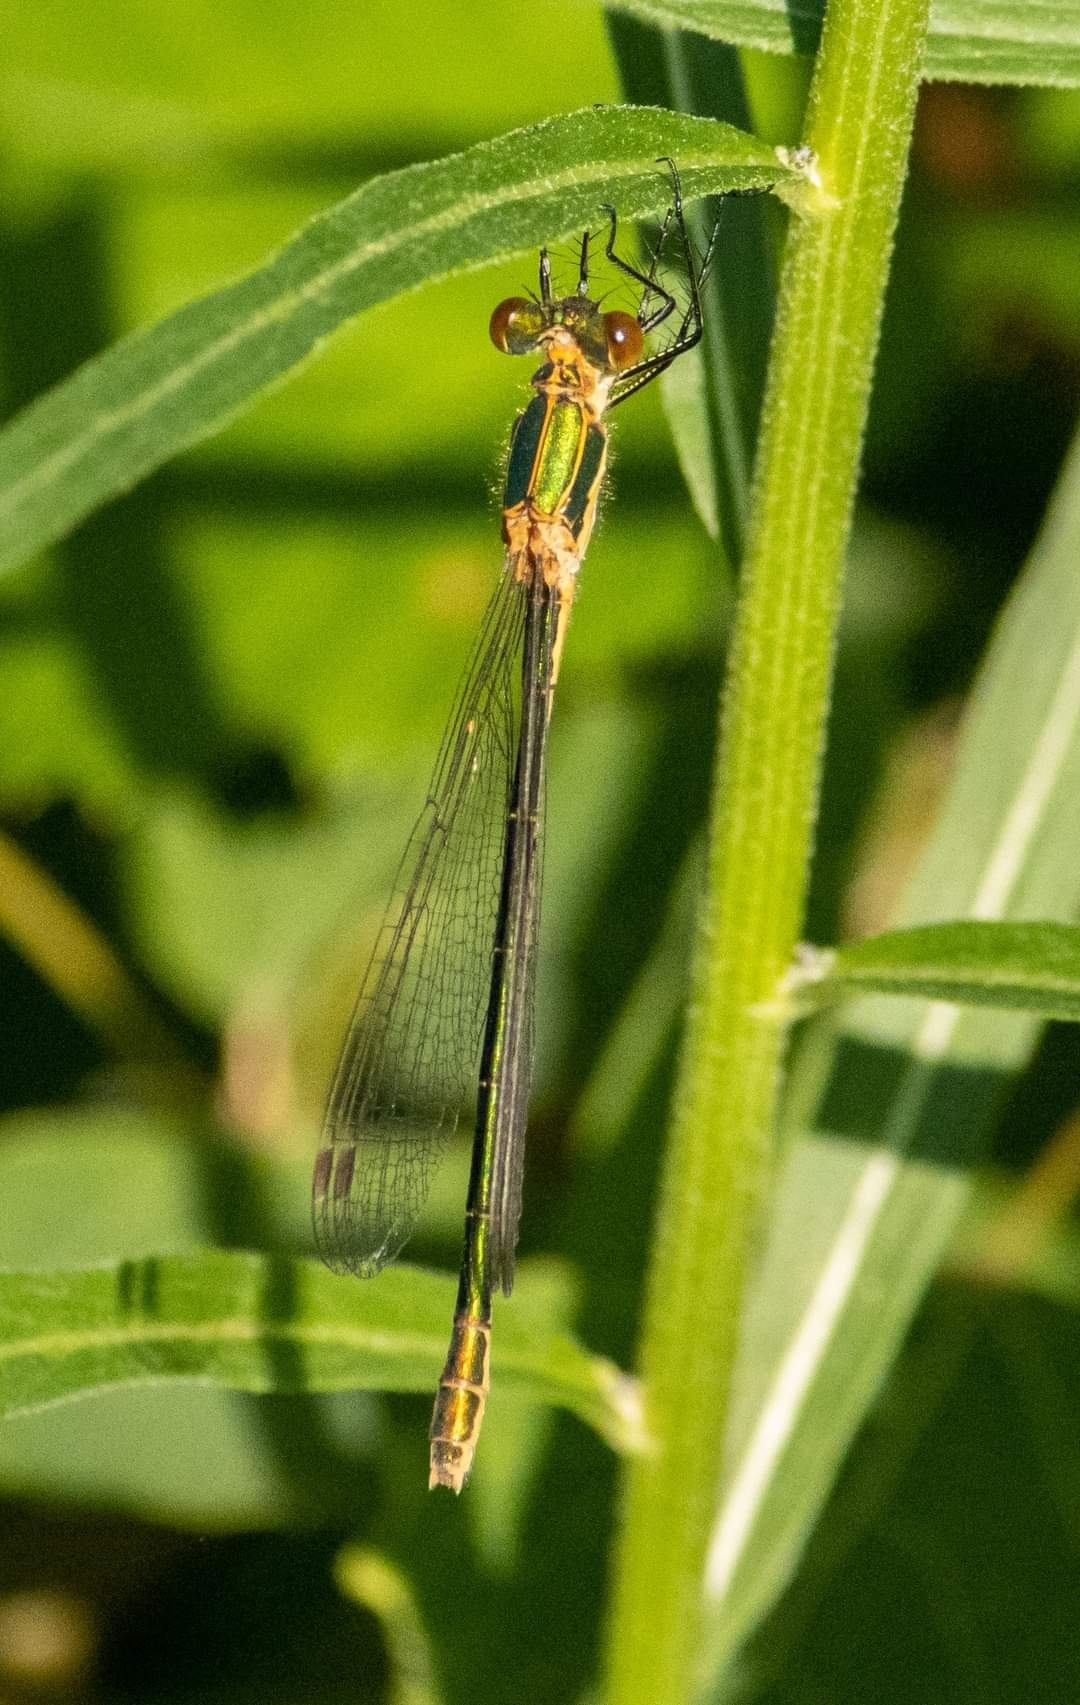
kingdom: Animalia
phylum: Arthropoda
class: Insecta
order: Odonata
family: Lestidae
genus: Lestes
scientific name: Lestes sponsa
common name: Common spreadwing
